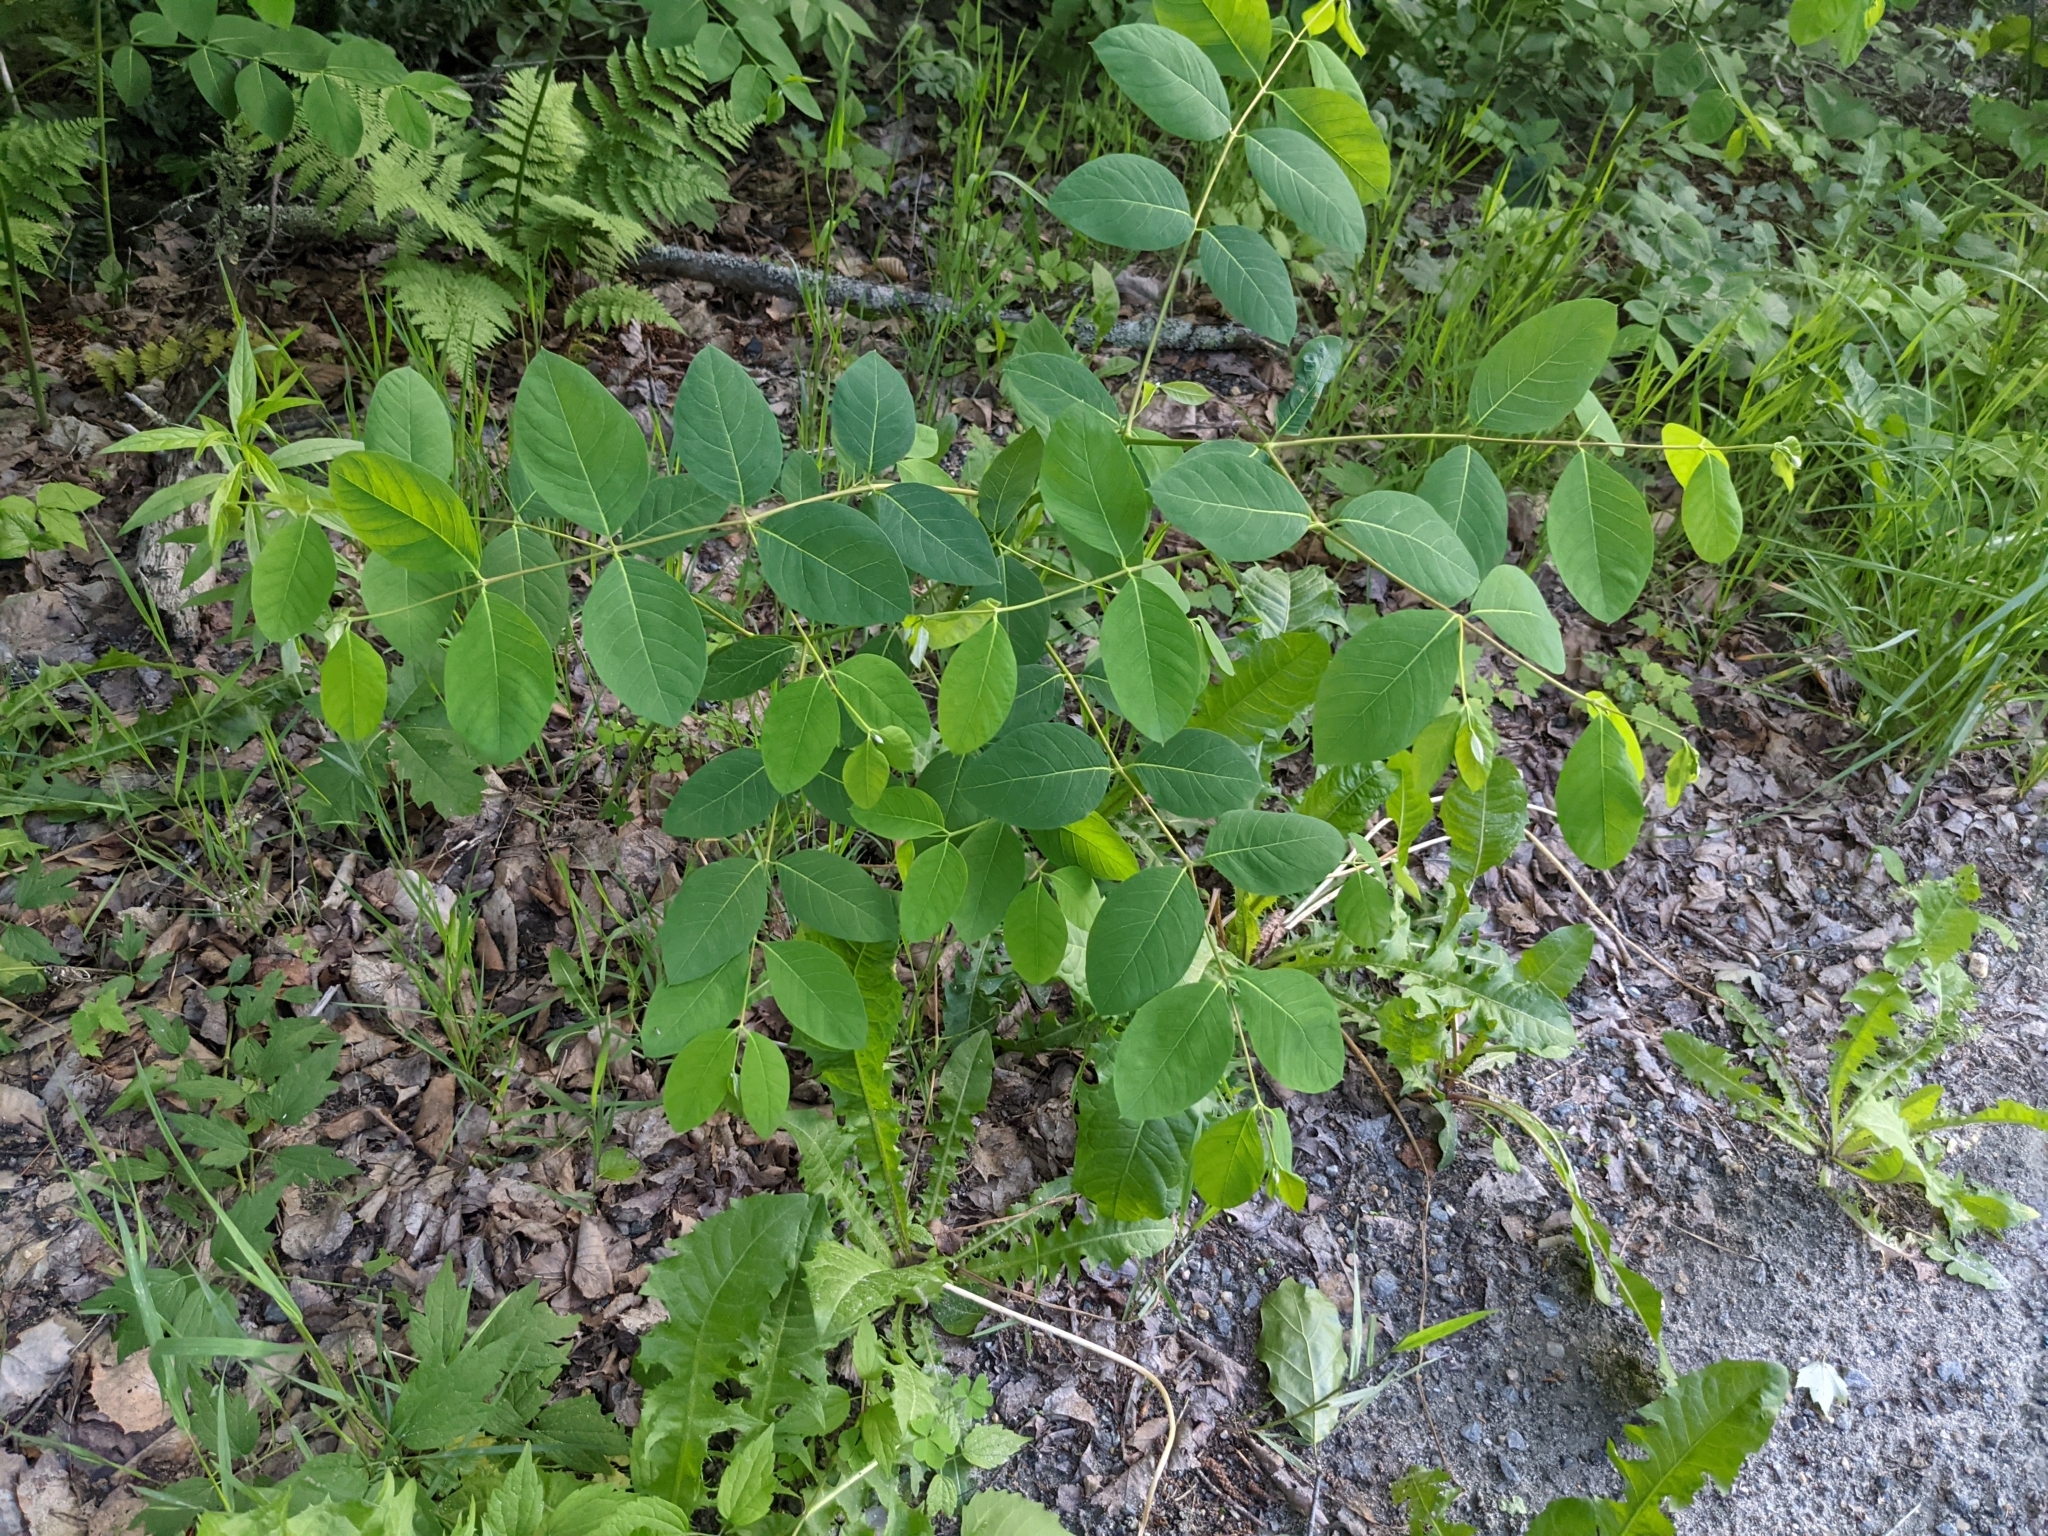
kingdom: Plantae
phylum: Tracheophyta
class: Magnoliopsida
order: Gentianales
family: Apocynaceae
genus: Apocynum
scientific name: Apocynum androsaemifolium
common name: Spreading dogbane
